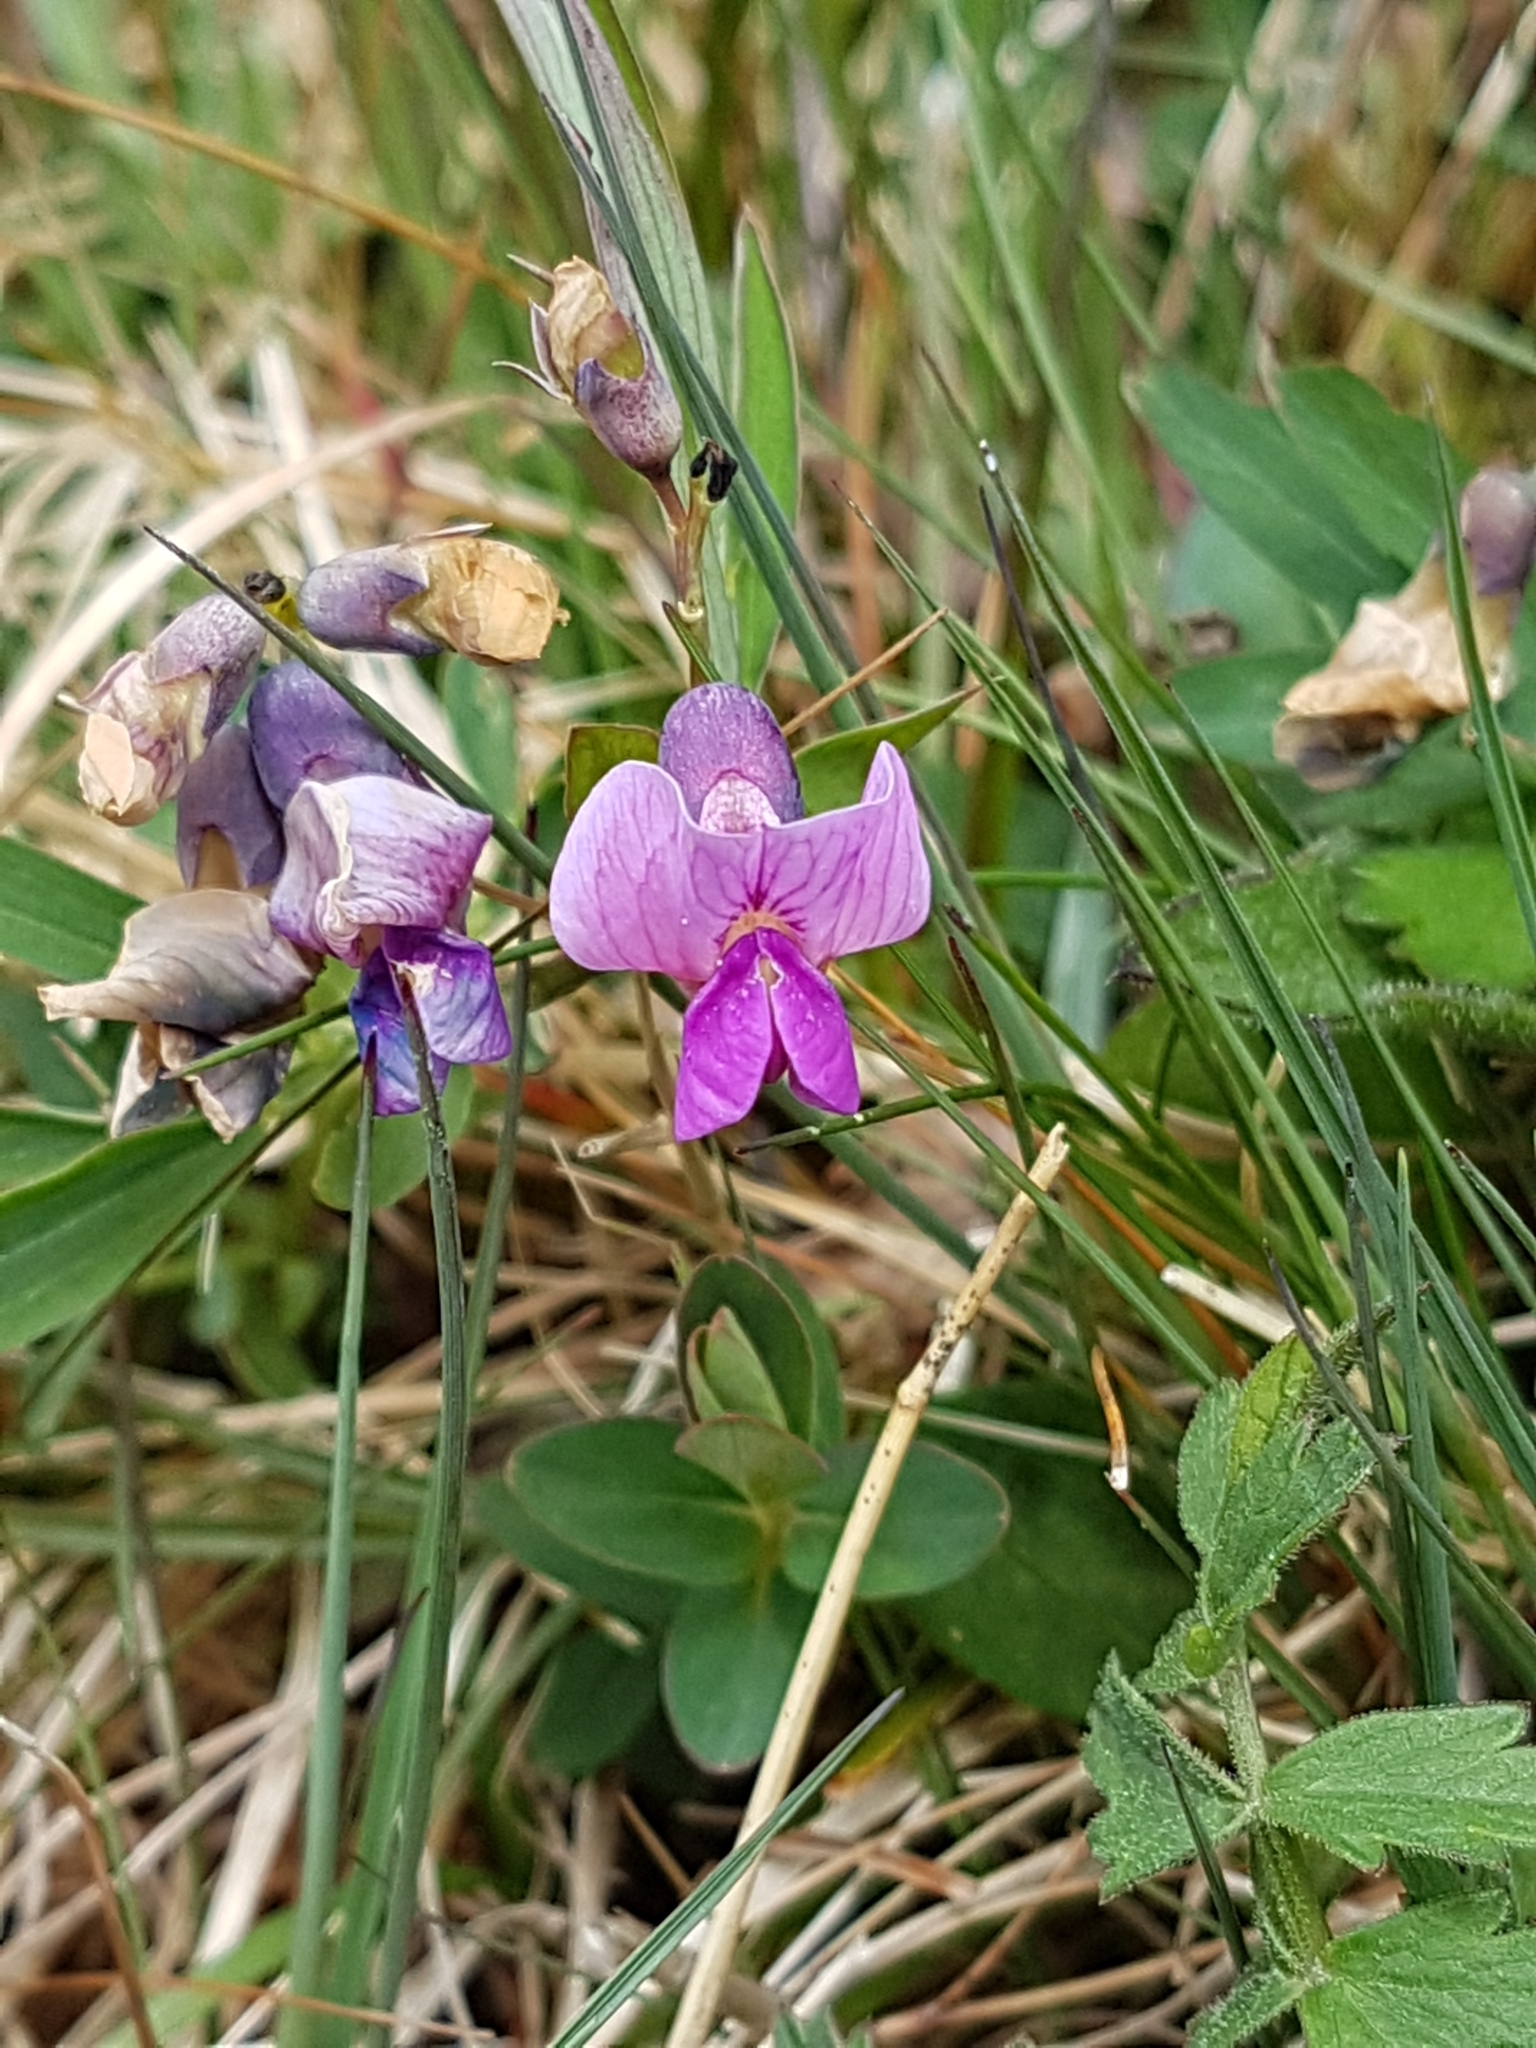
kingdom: Plantae
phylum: Tracheophyta
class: Magnoliopsida
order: Fabales
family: Fabaceae
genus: Lathyrus
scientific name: Lathyrus linifolius
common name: Bitter-vetch
